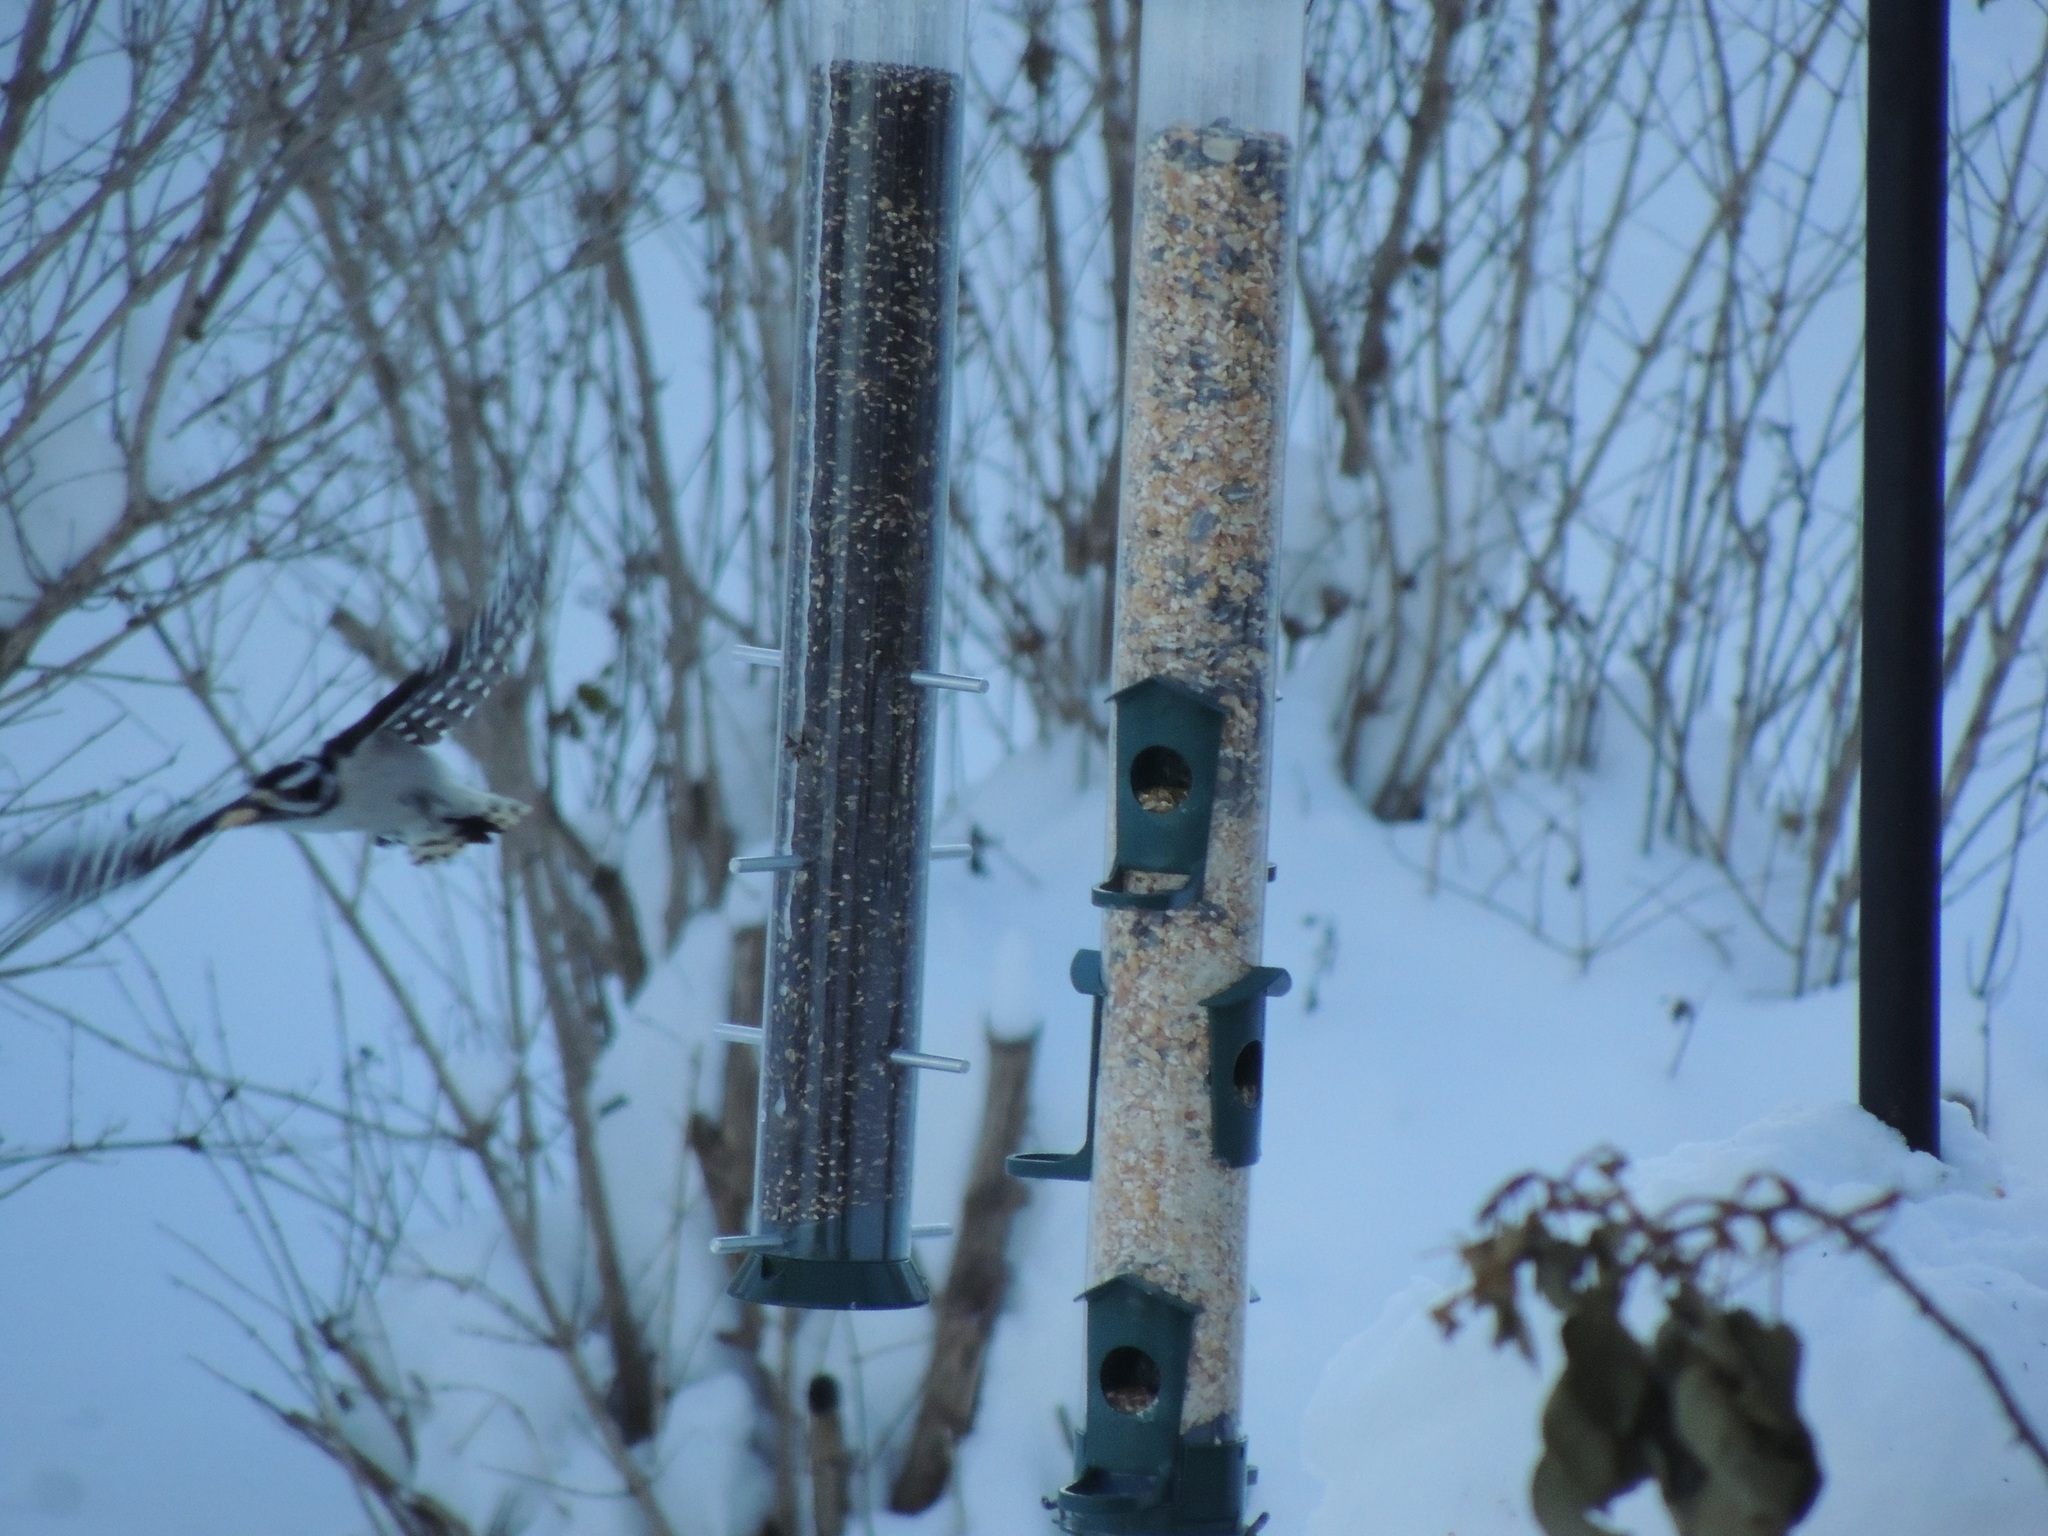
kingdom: Animalia
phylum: Chordata
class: Aves
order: Piciformes
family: Picidae
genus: Leuconotopicus
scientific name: Leuconotopicus villosus
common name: Hairy woodpecker
